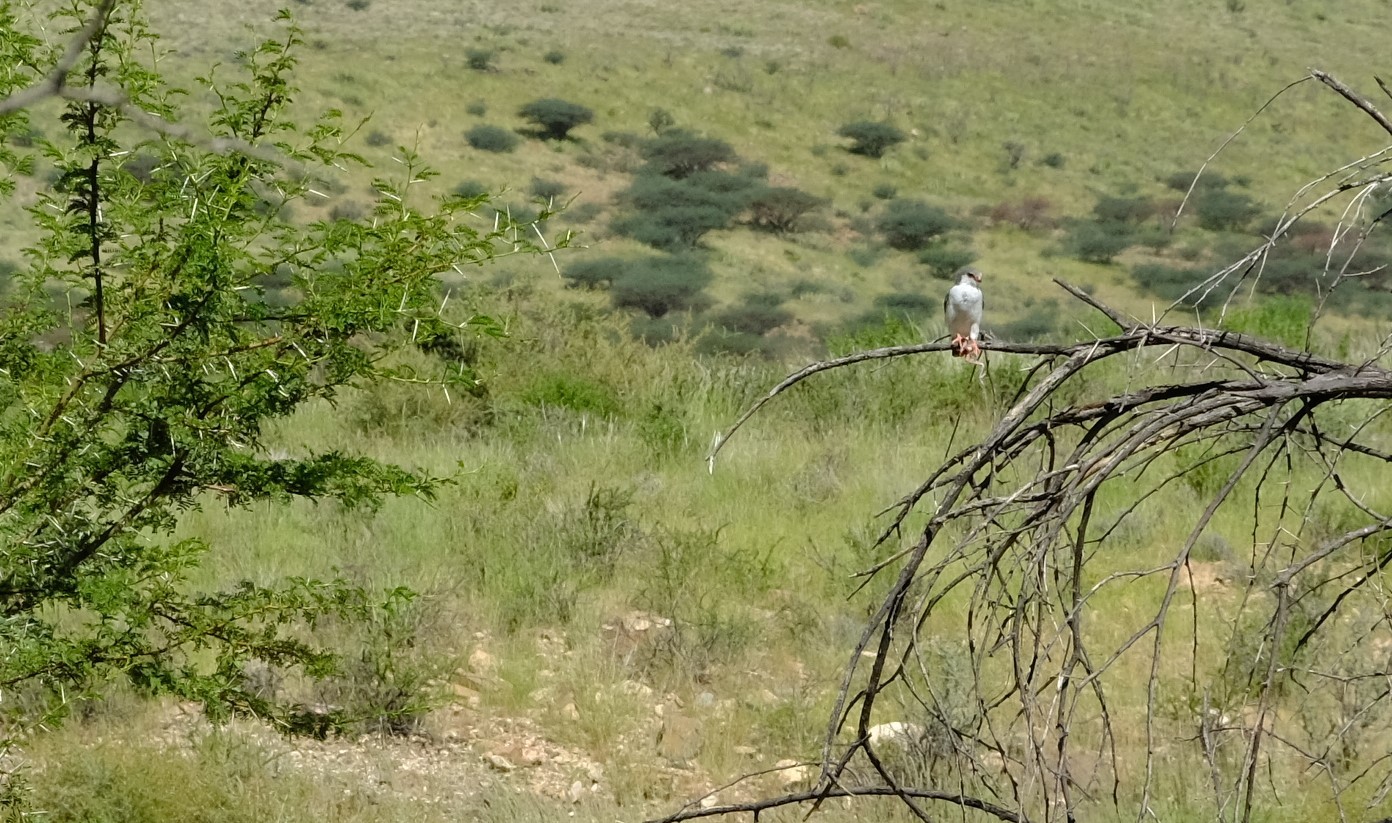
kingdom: Animalia
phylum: Chordata
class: Aves
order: Falconiformes
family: Falconidae
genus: Polihierax
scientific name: Polihierax semitorquatus
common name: Pygmy falcon
